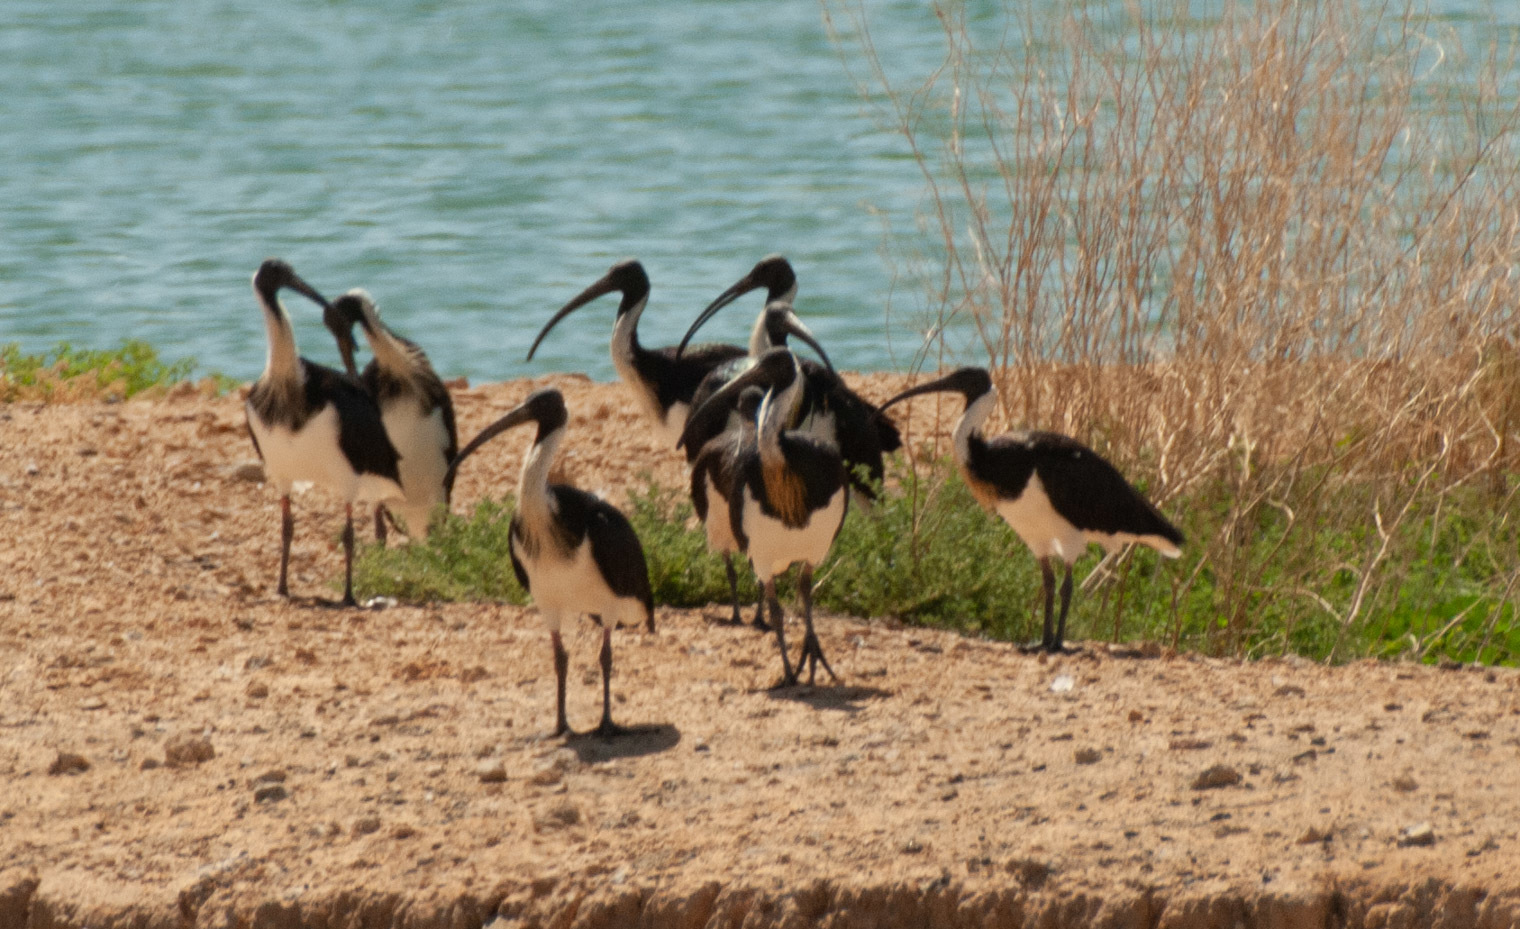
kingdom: Animalia
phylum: Chordata
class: Aves
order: Pelecaniformes
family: Threskiornithidae
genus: Threskiornis
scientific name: Threskiornis spinicollis
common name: Straw-necked ibis
